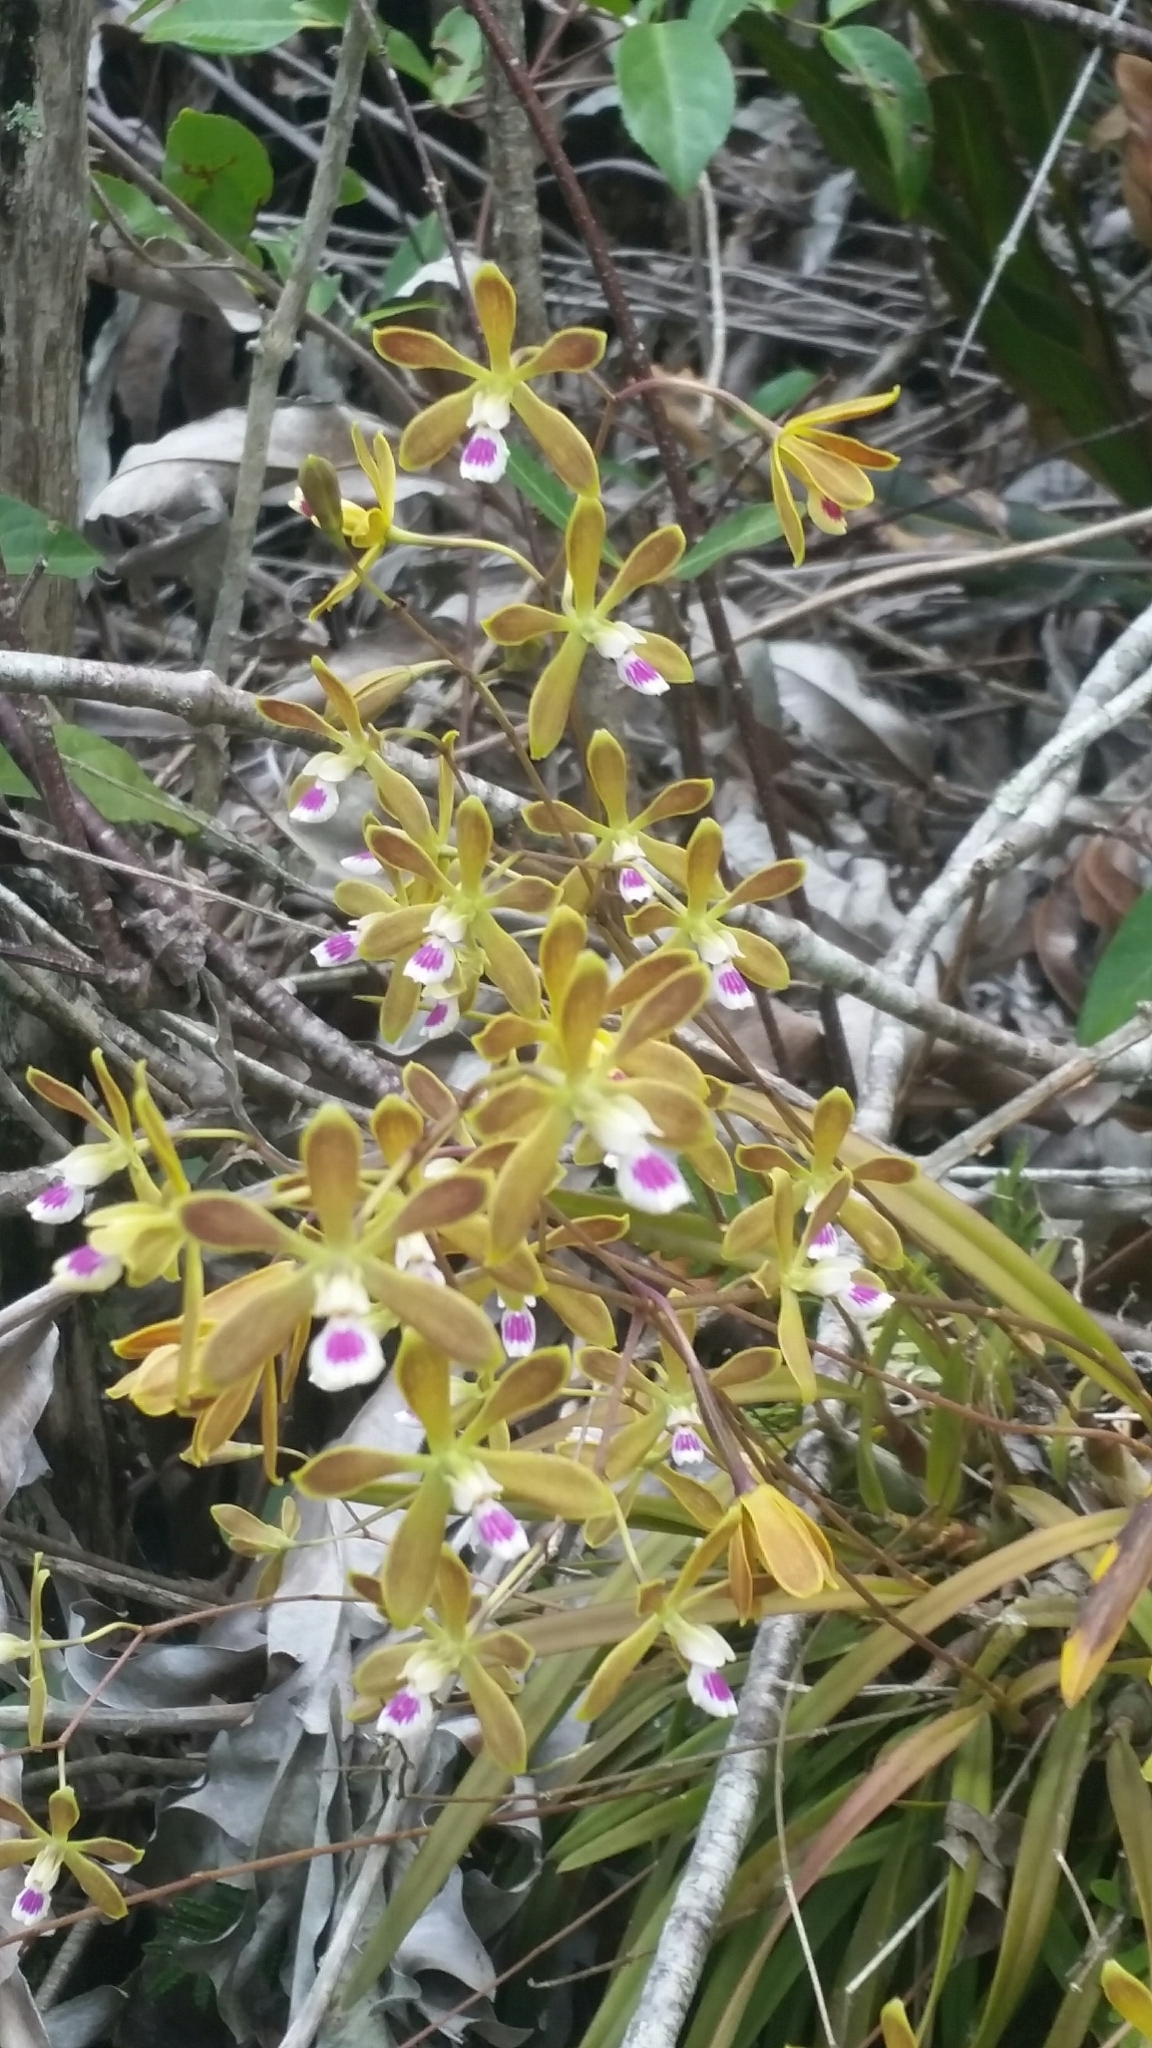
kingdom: Plantae
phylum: Tracheophyta
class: Liliopsida
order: Asparagales
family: Orchidaceae
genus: Encyclia
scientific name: Encyclia tampensis
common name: Florida butterfly orchid
